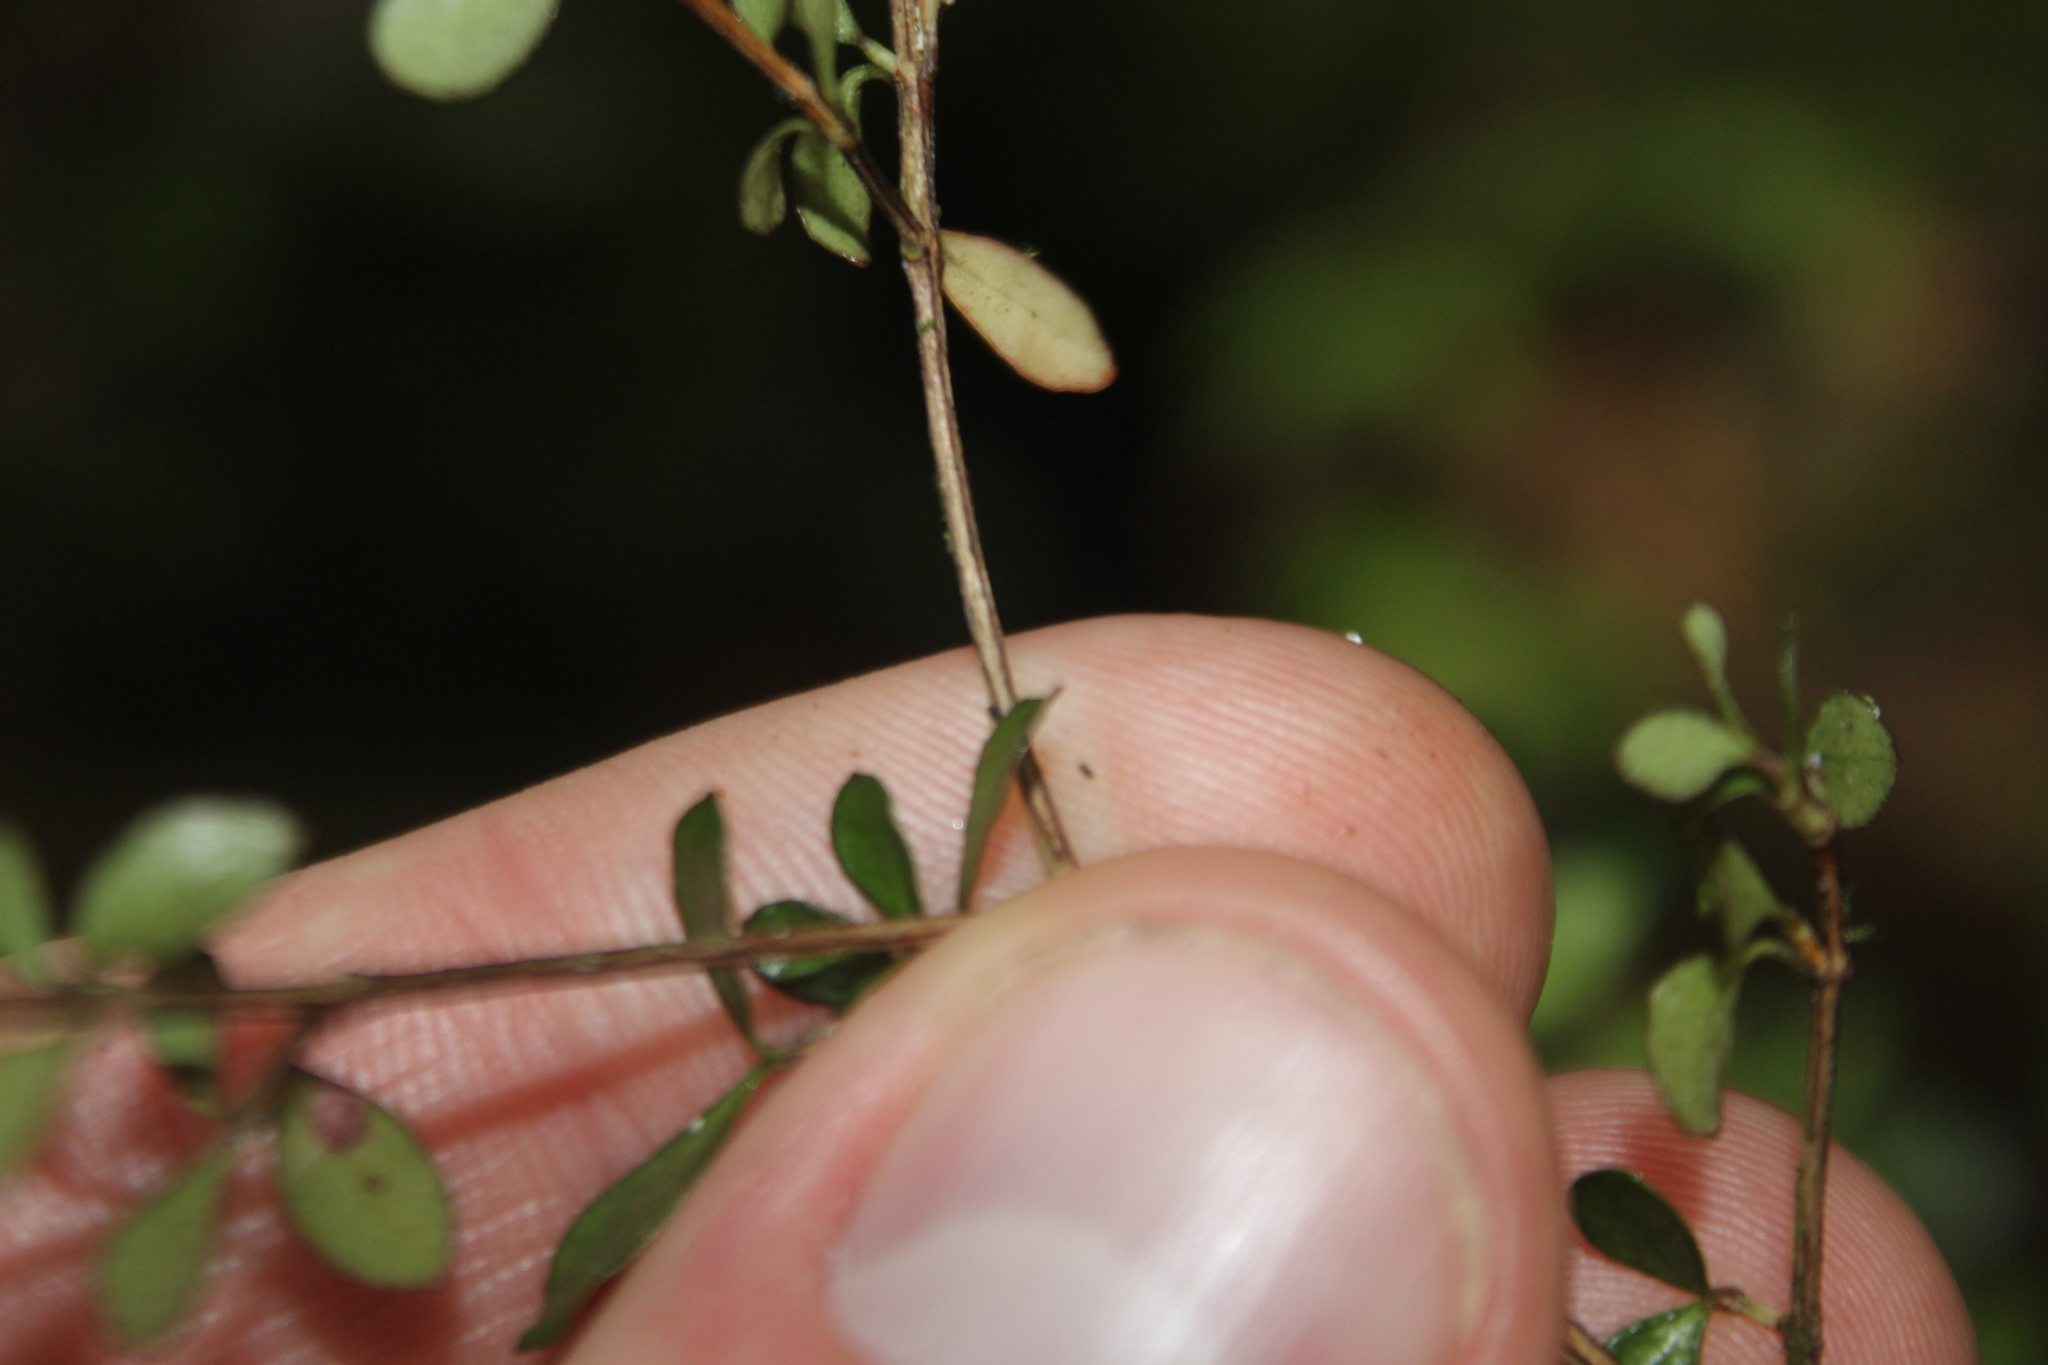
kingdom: Plantae
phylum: Tracheophyta
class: Magnoliopsida
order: Myrtales
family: Myrtaceae
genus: Neomyrtus
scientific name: Neomyrtus pedunculata
